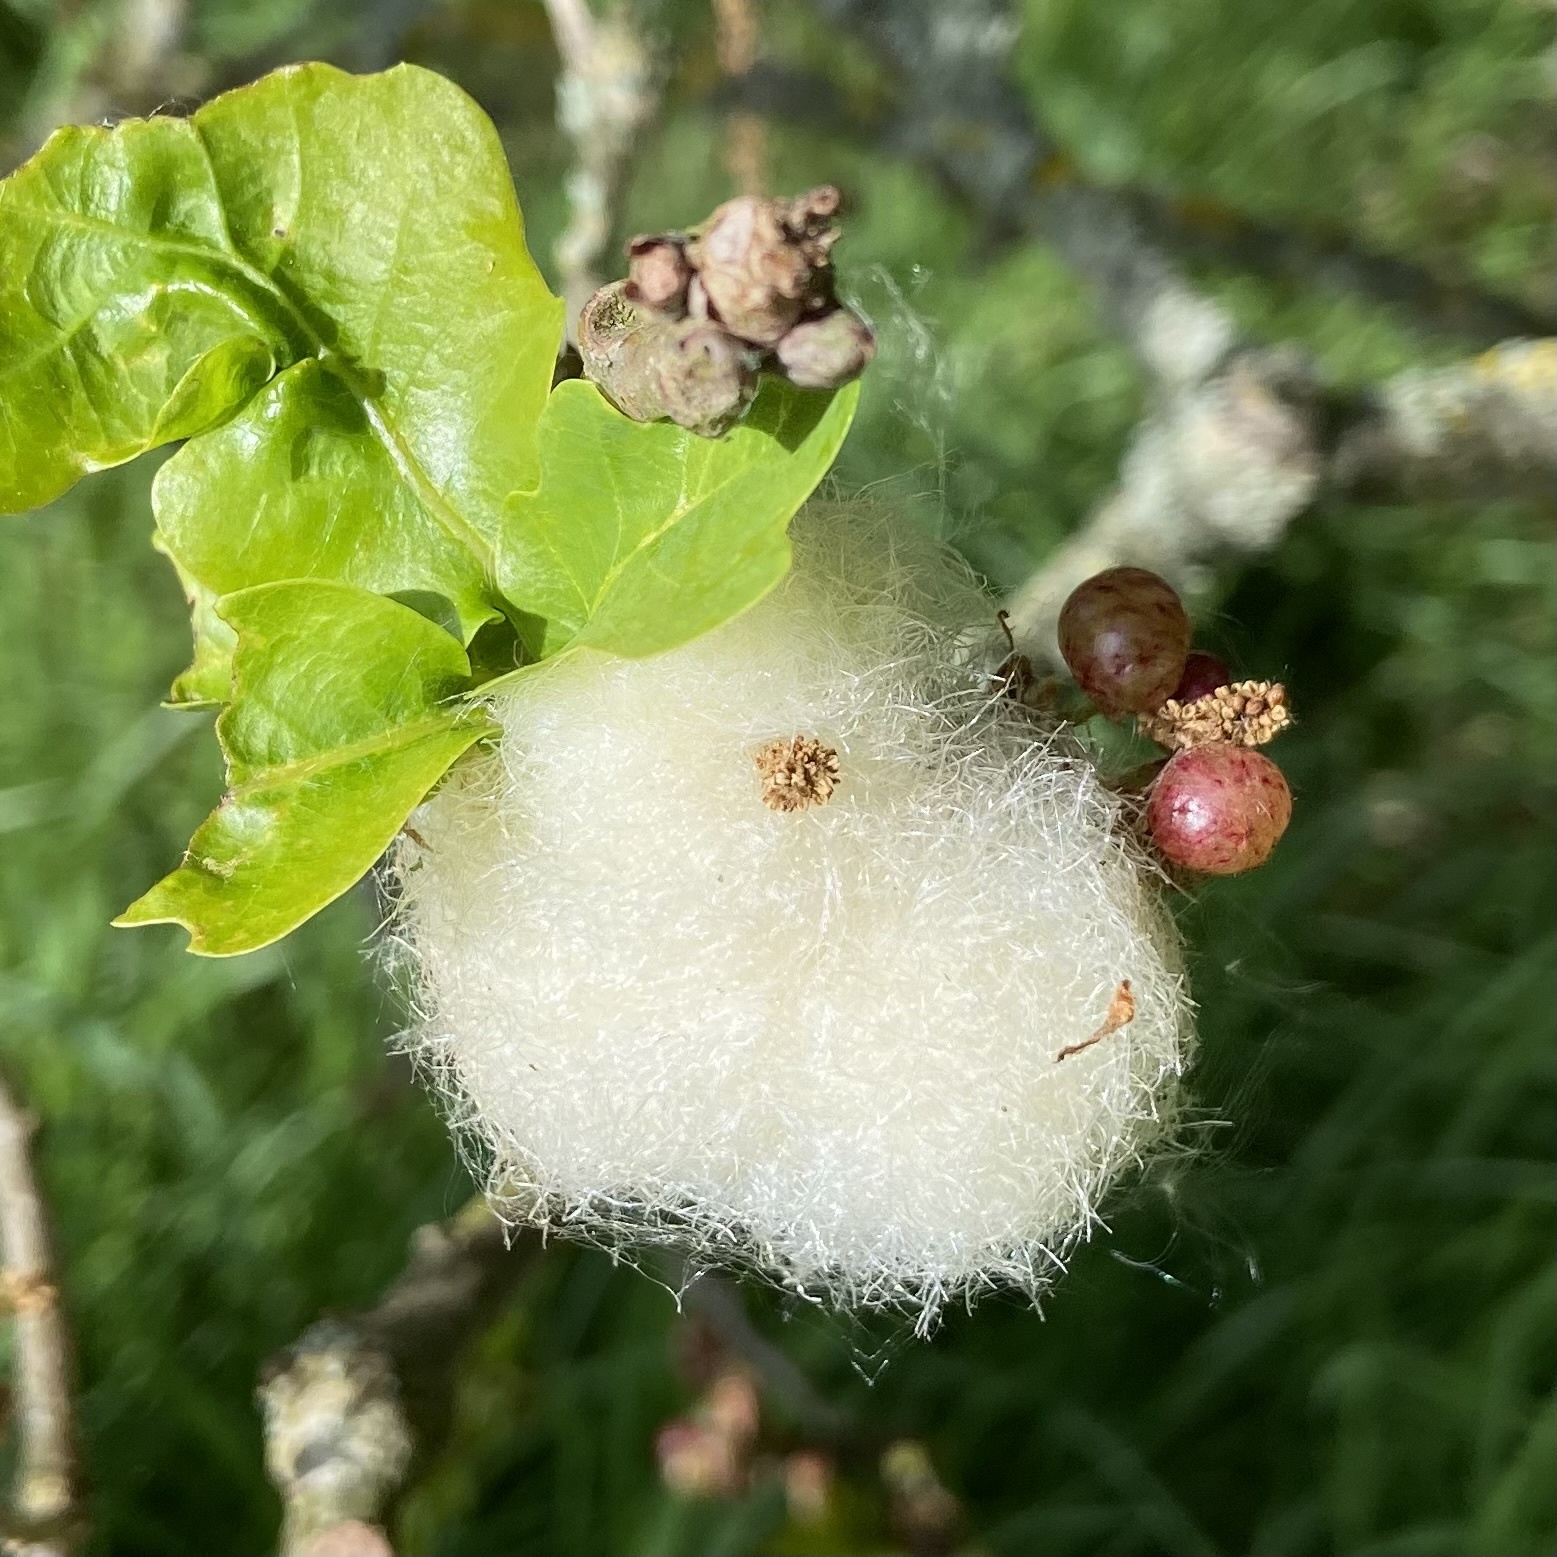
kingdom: Animalia
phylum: Arthropoda
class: Insecta
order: Hymenoptera
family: Cynipidae
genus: Andricus
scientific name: Andricus quercusramuli
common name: Cottonwool gall
